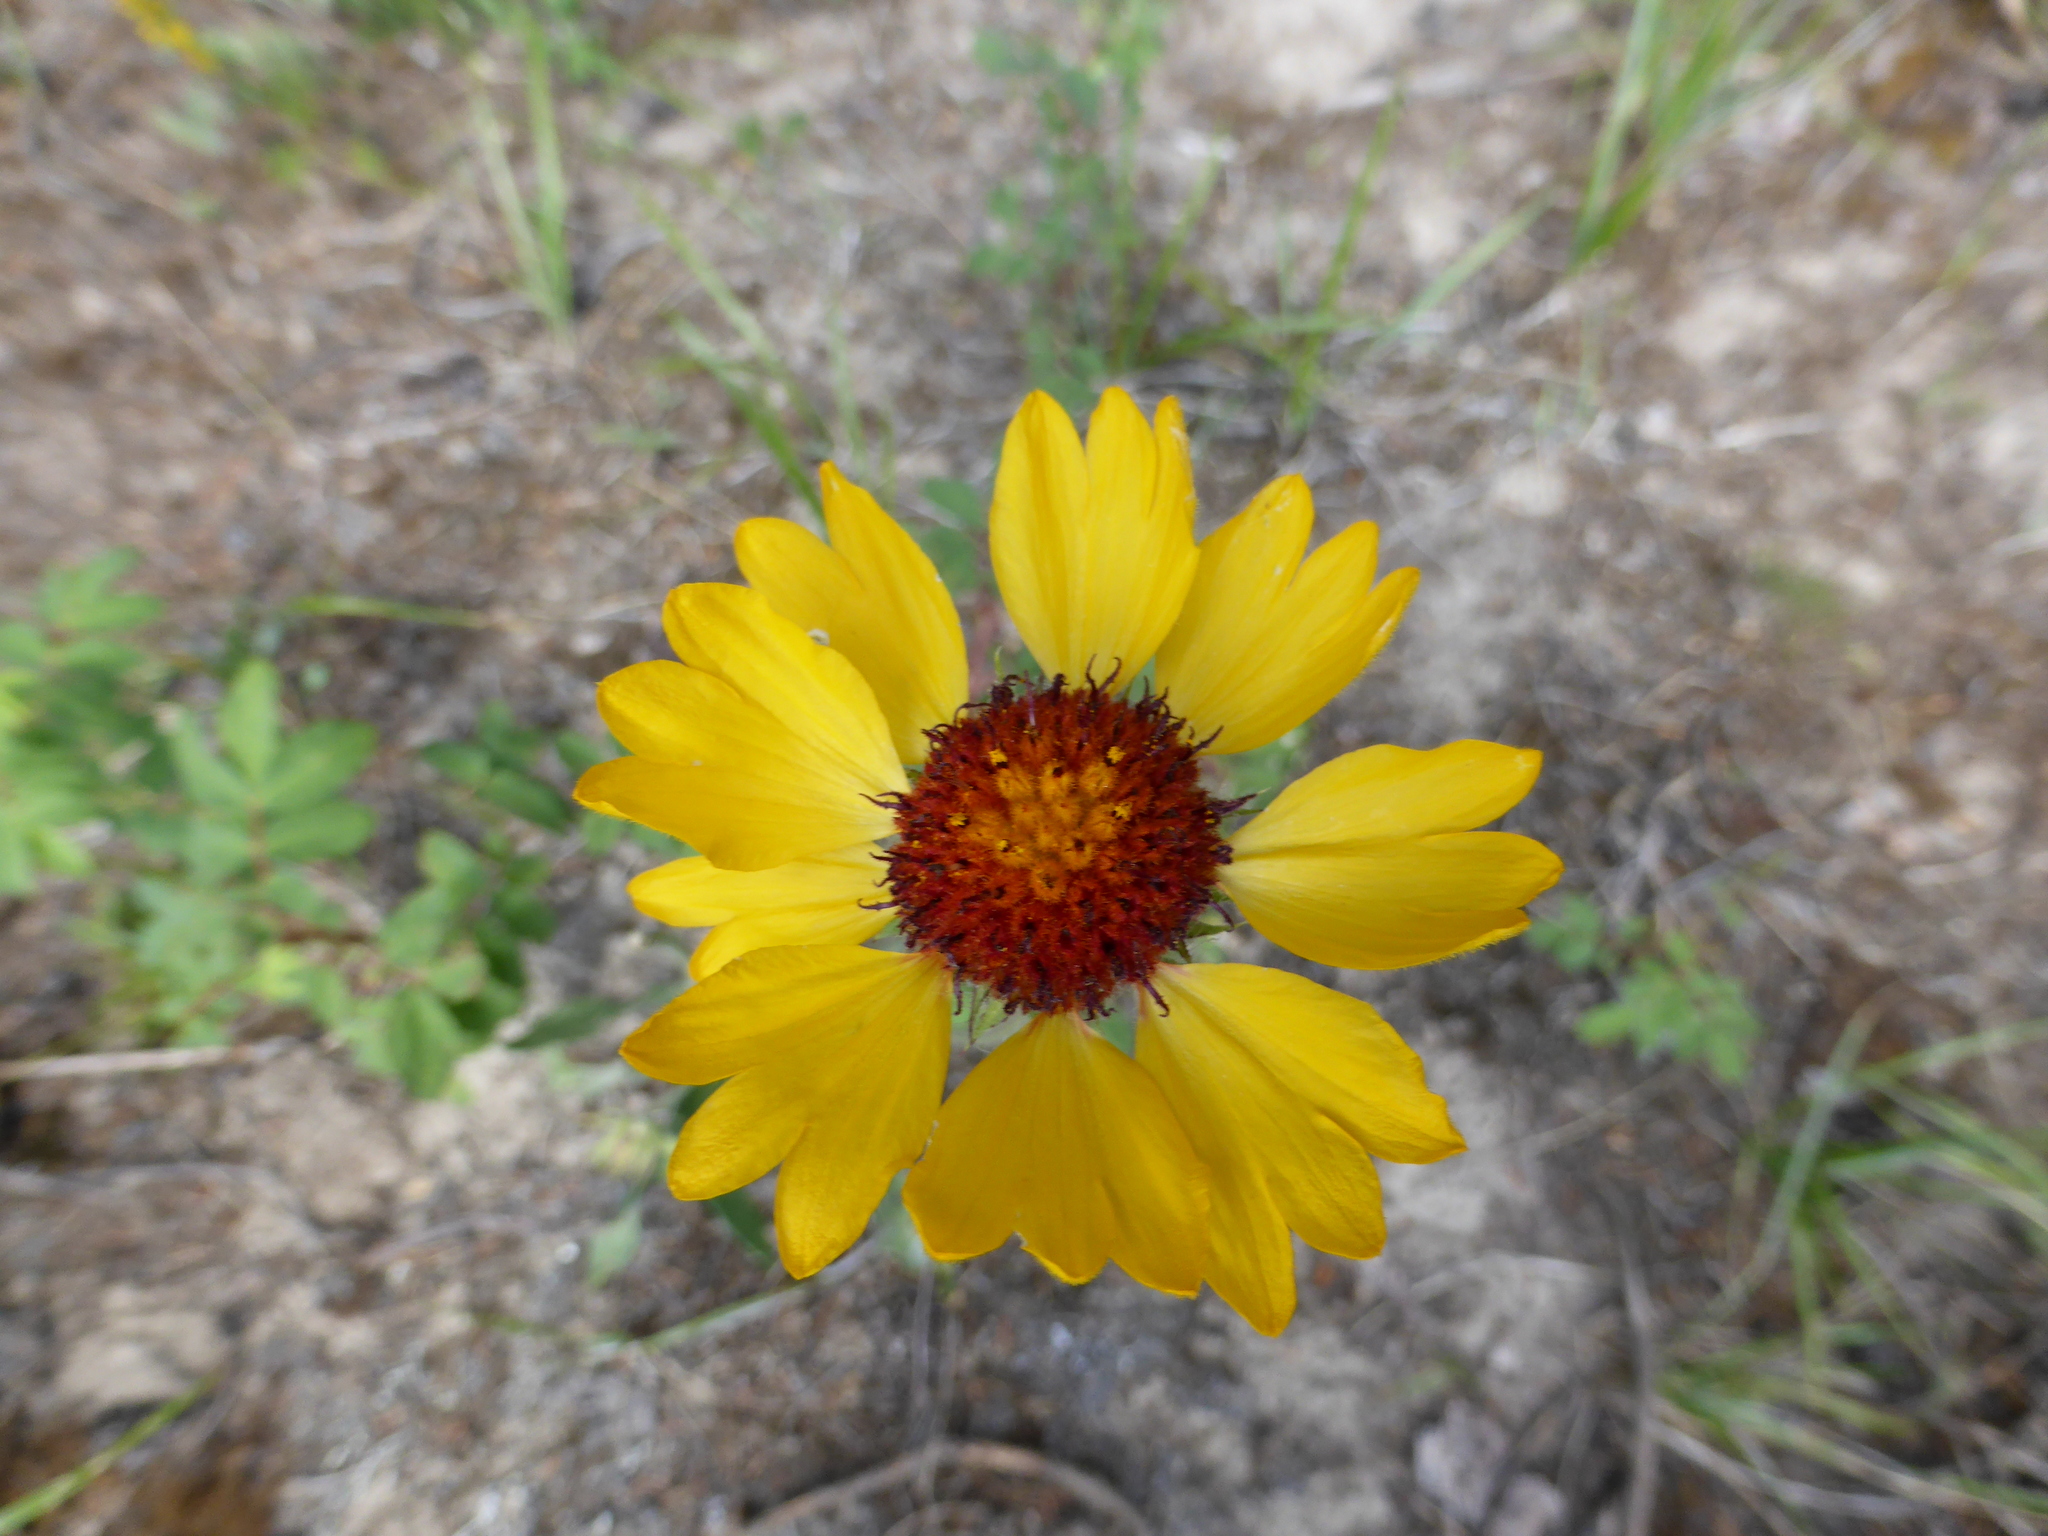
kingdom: Plantae
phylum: Tracheophyta
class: Magnoliopsida
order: Asterales
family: Asteraceae
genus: Gaillardia
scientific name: Gaillardia aristata
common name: Blanket-flower
